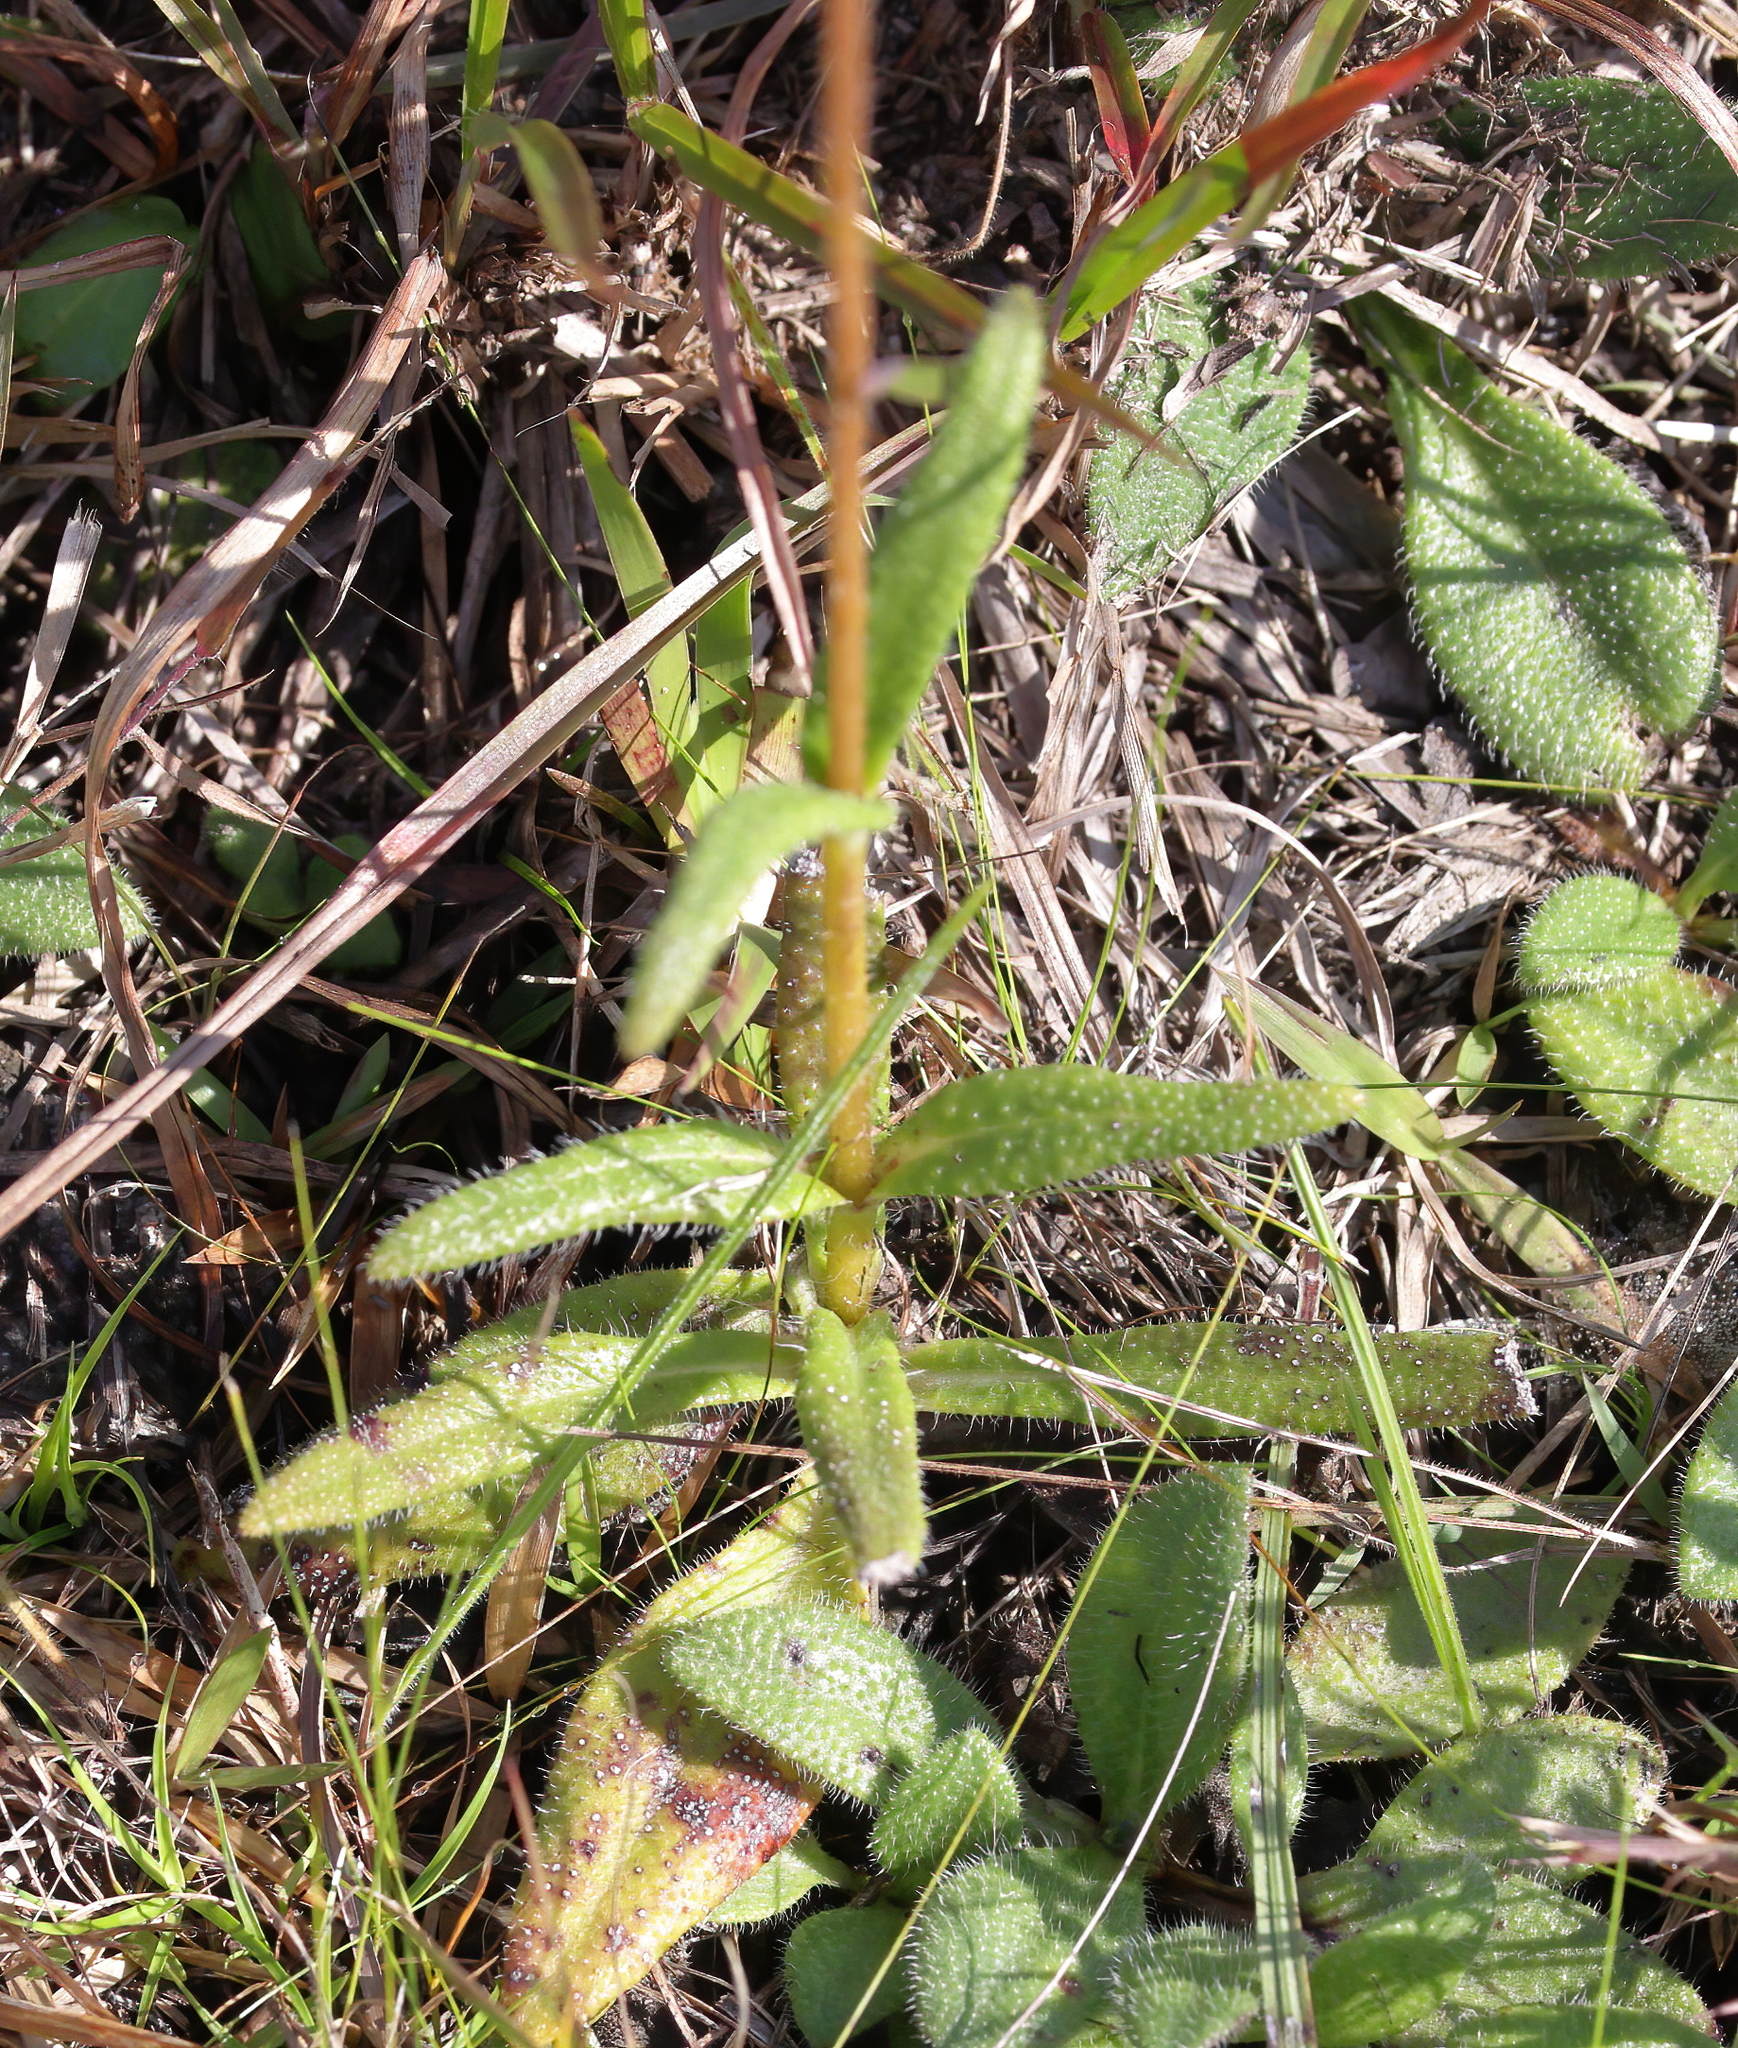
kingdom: Plantae
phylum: Tracheophyta
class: Magnoliopsida
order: Asterales
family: Asteraceae
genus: Helianthus
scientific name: Helianthus heterophyllus
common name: Wetland sunflower
